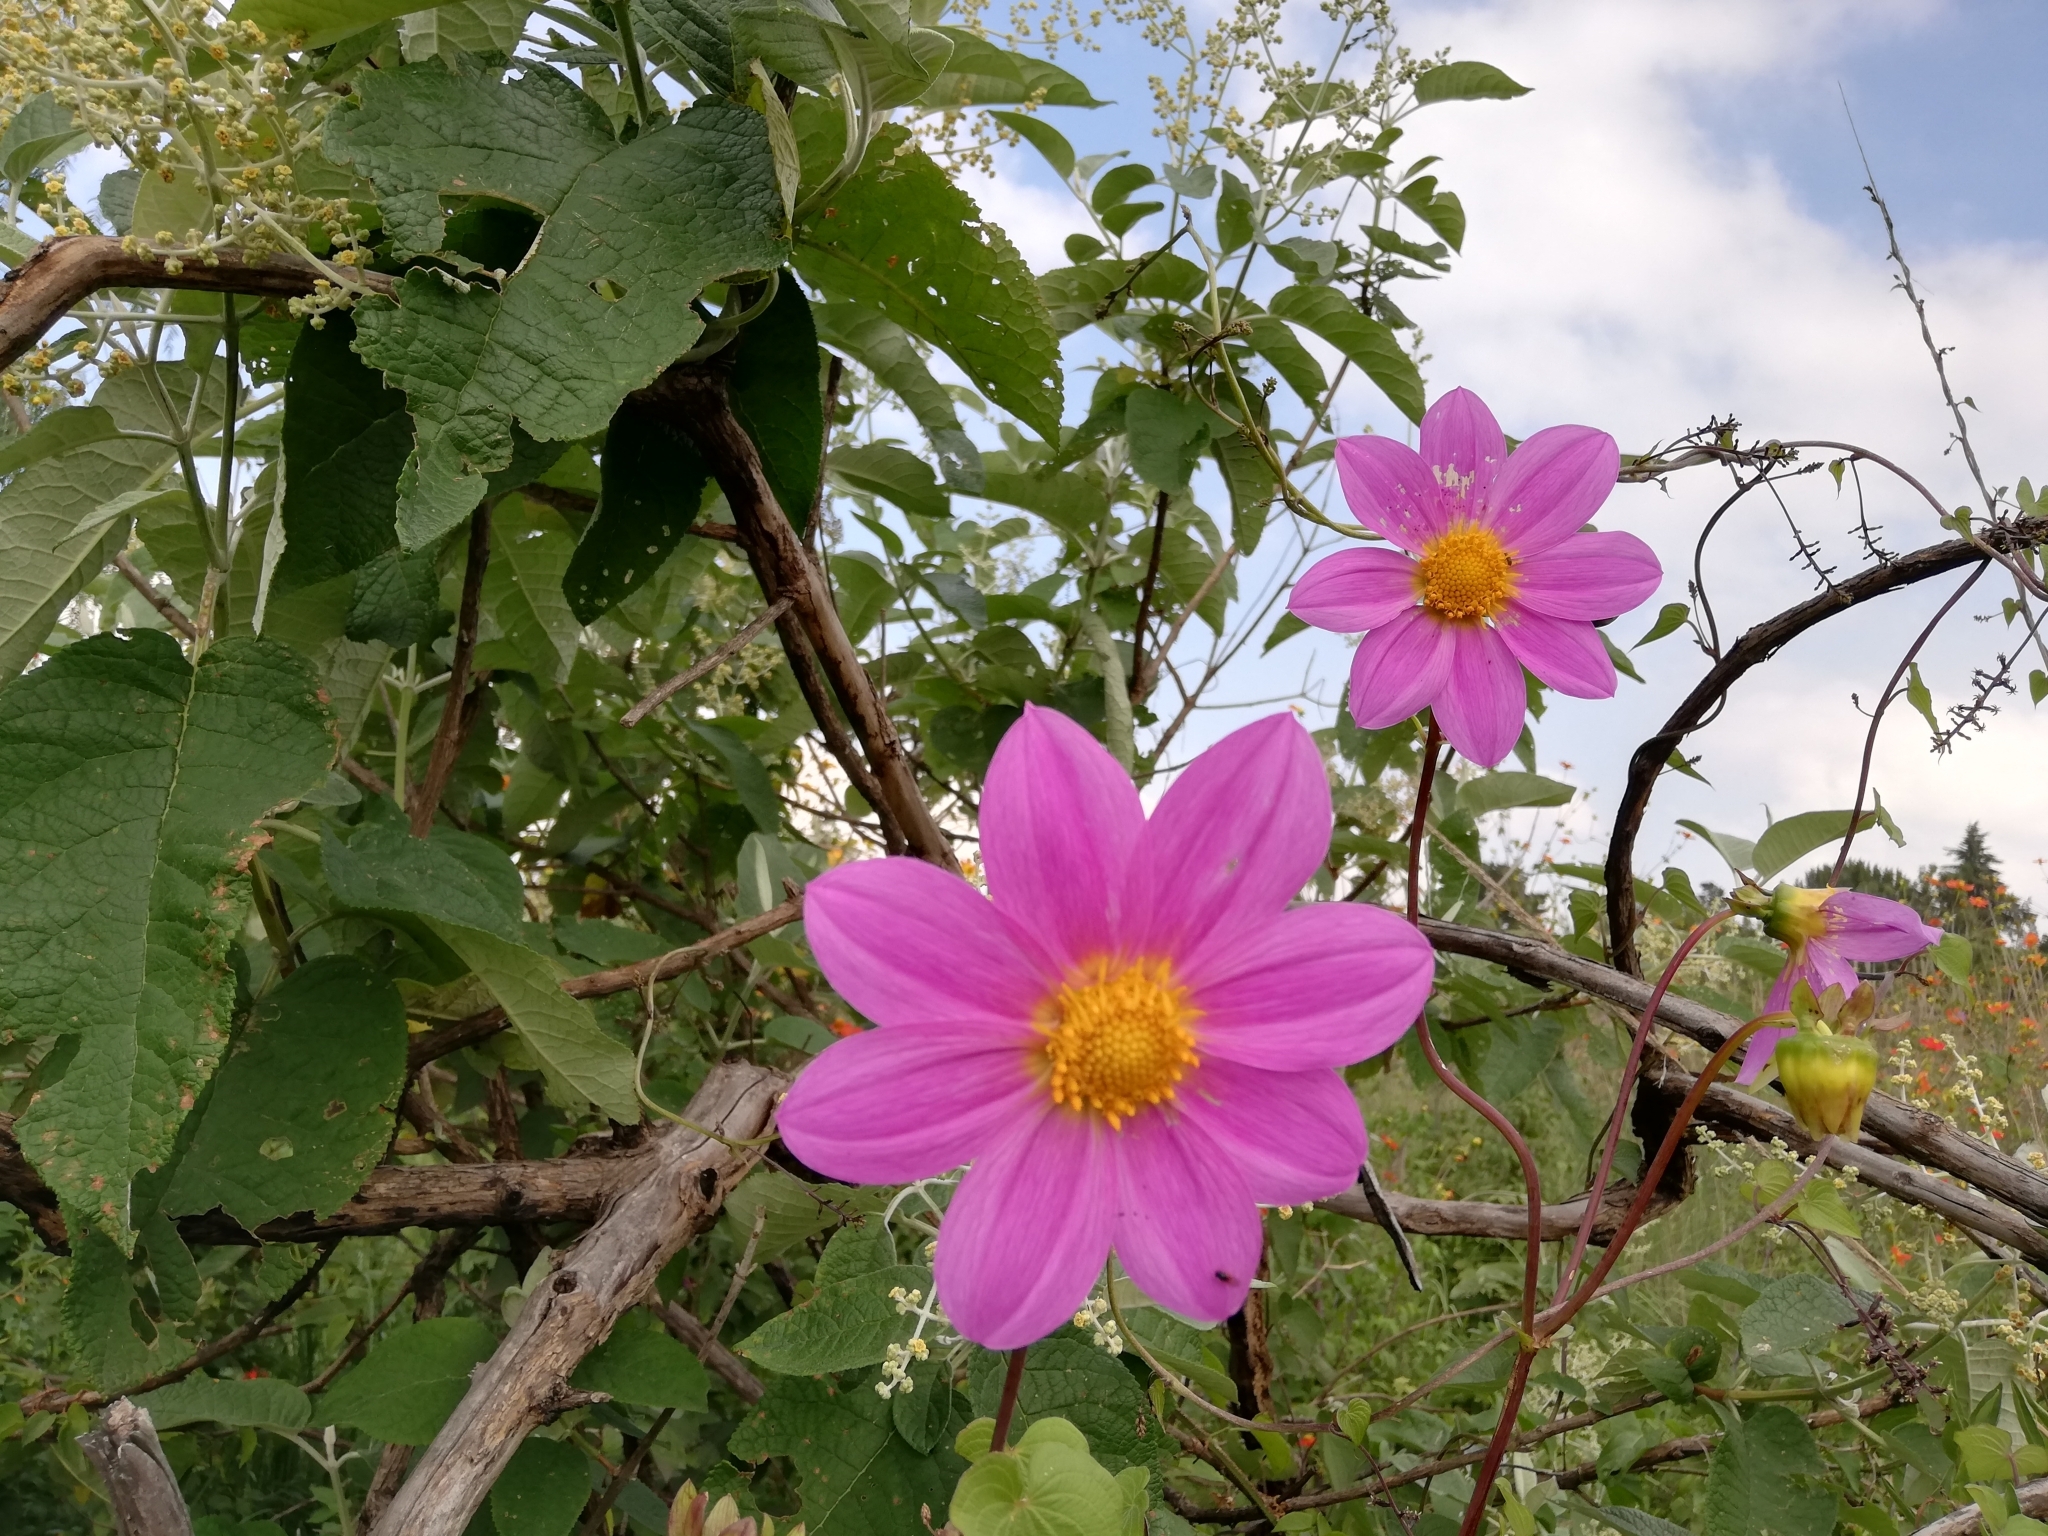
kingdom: Plantae
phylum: Tracheophyta
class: Magnoliopsida
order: Asterales
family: Asteraceae
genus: Dahlia
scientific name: Dahlia sorensenii
